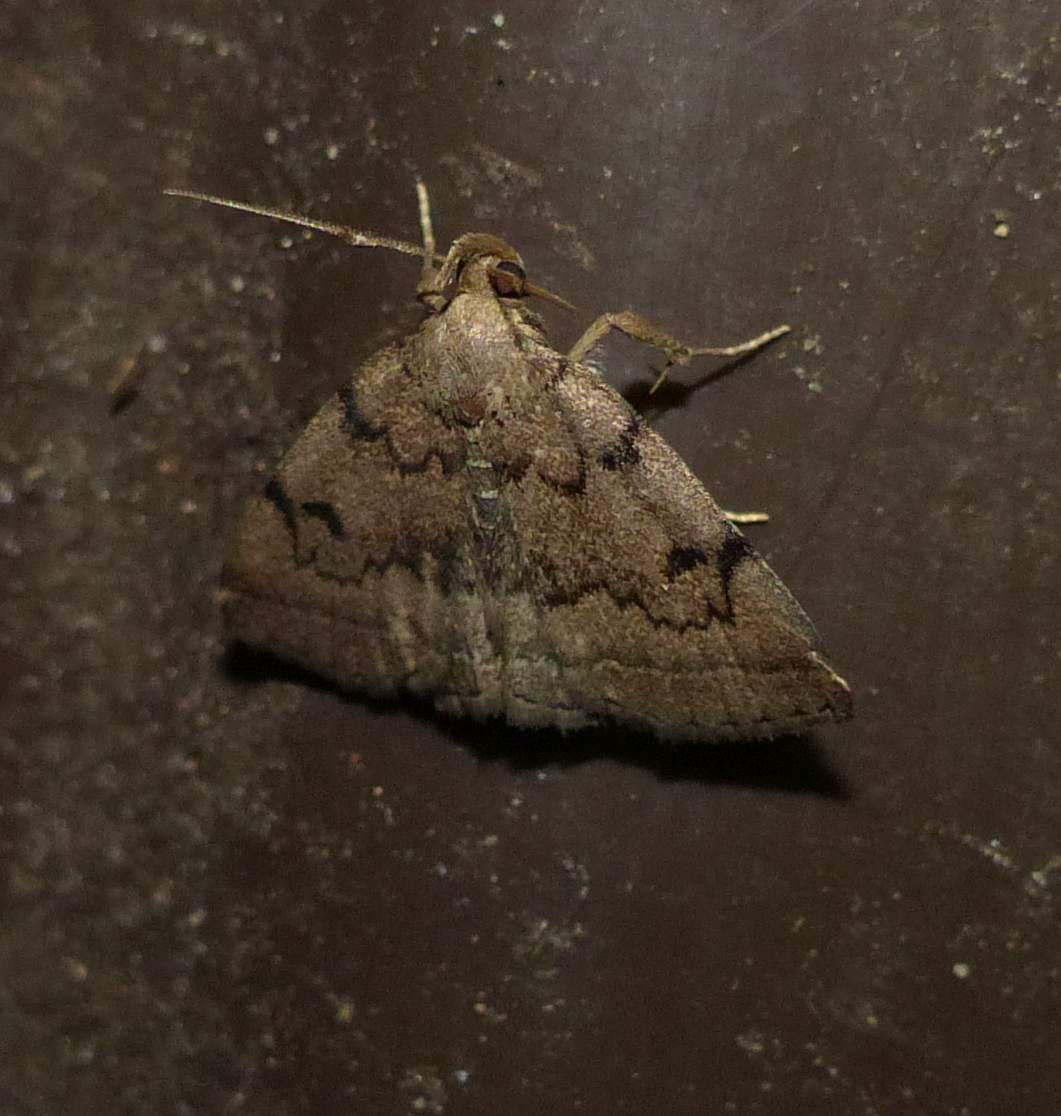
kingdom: Animalia
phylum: Arthropoda
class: Insecta
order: Lepidoptera
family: Erebidae
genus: Zanclognatha
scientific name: Zanclognatha dentata
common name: Toothed fan-foot
